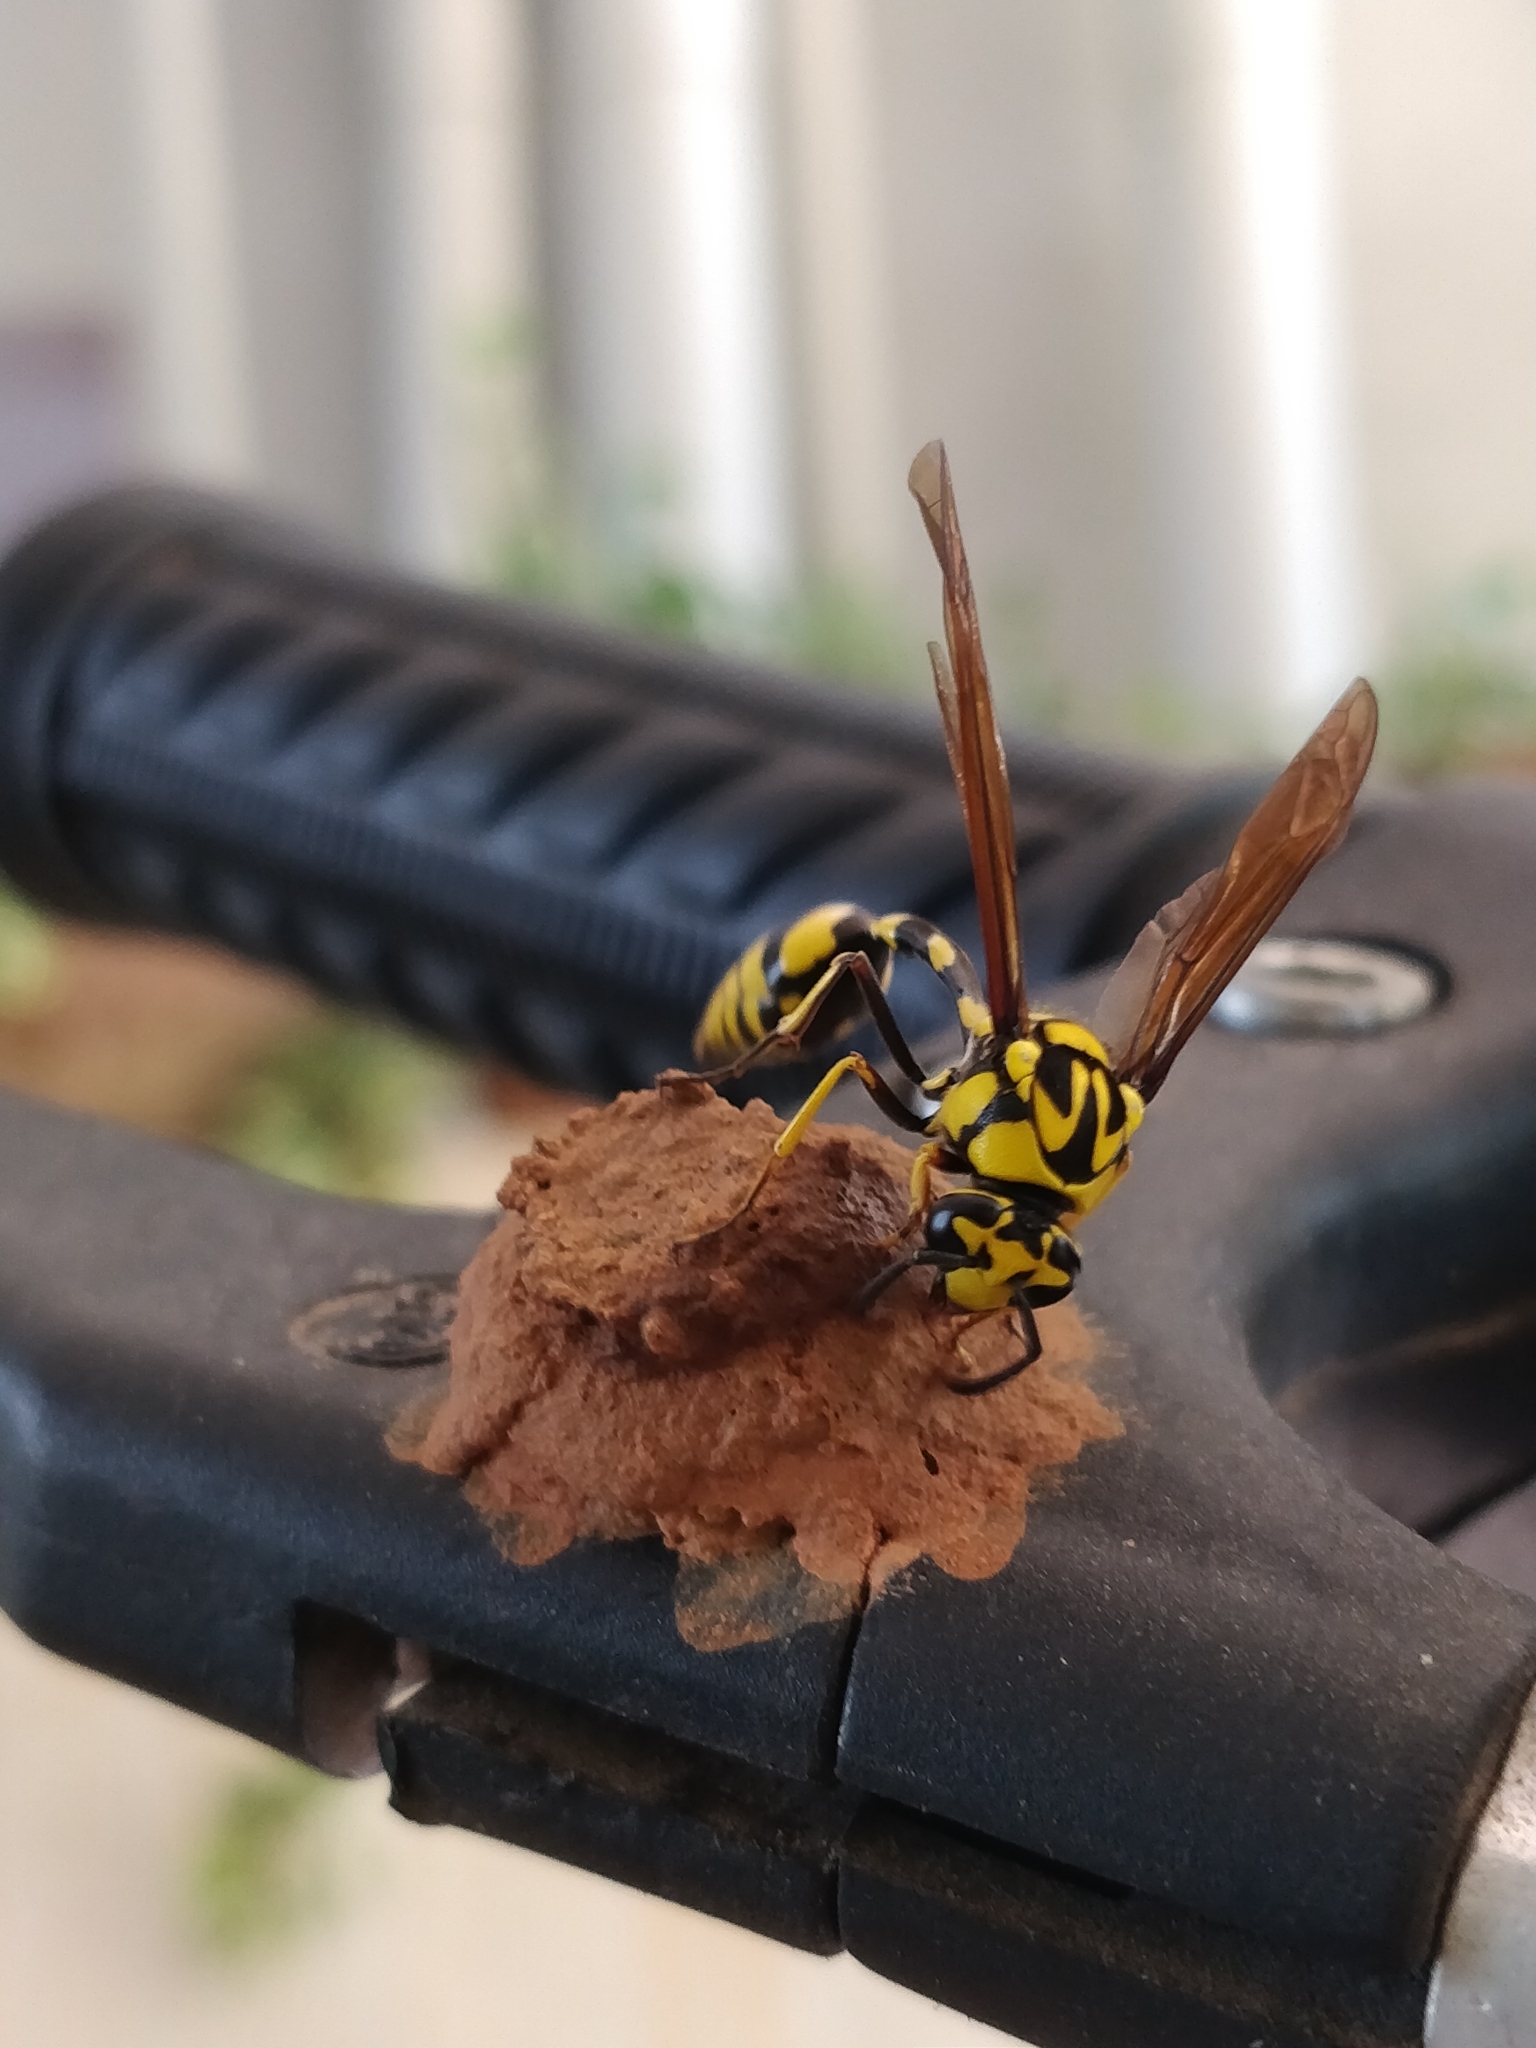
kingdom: Animalia
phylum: Arthropoda
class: Insecta
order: Hymenoptera
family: Eumenidae
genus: Phimenes
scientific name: Phimenes flavopictus
